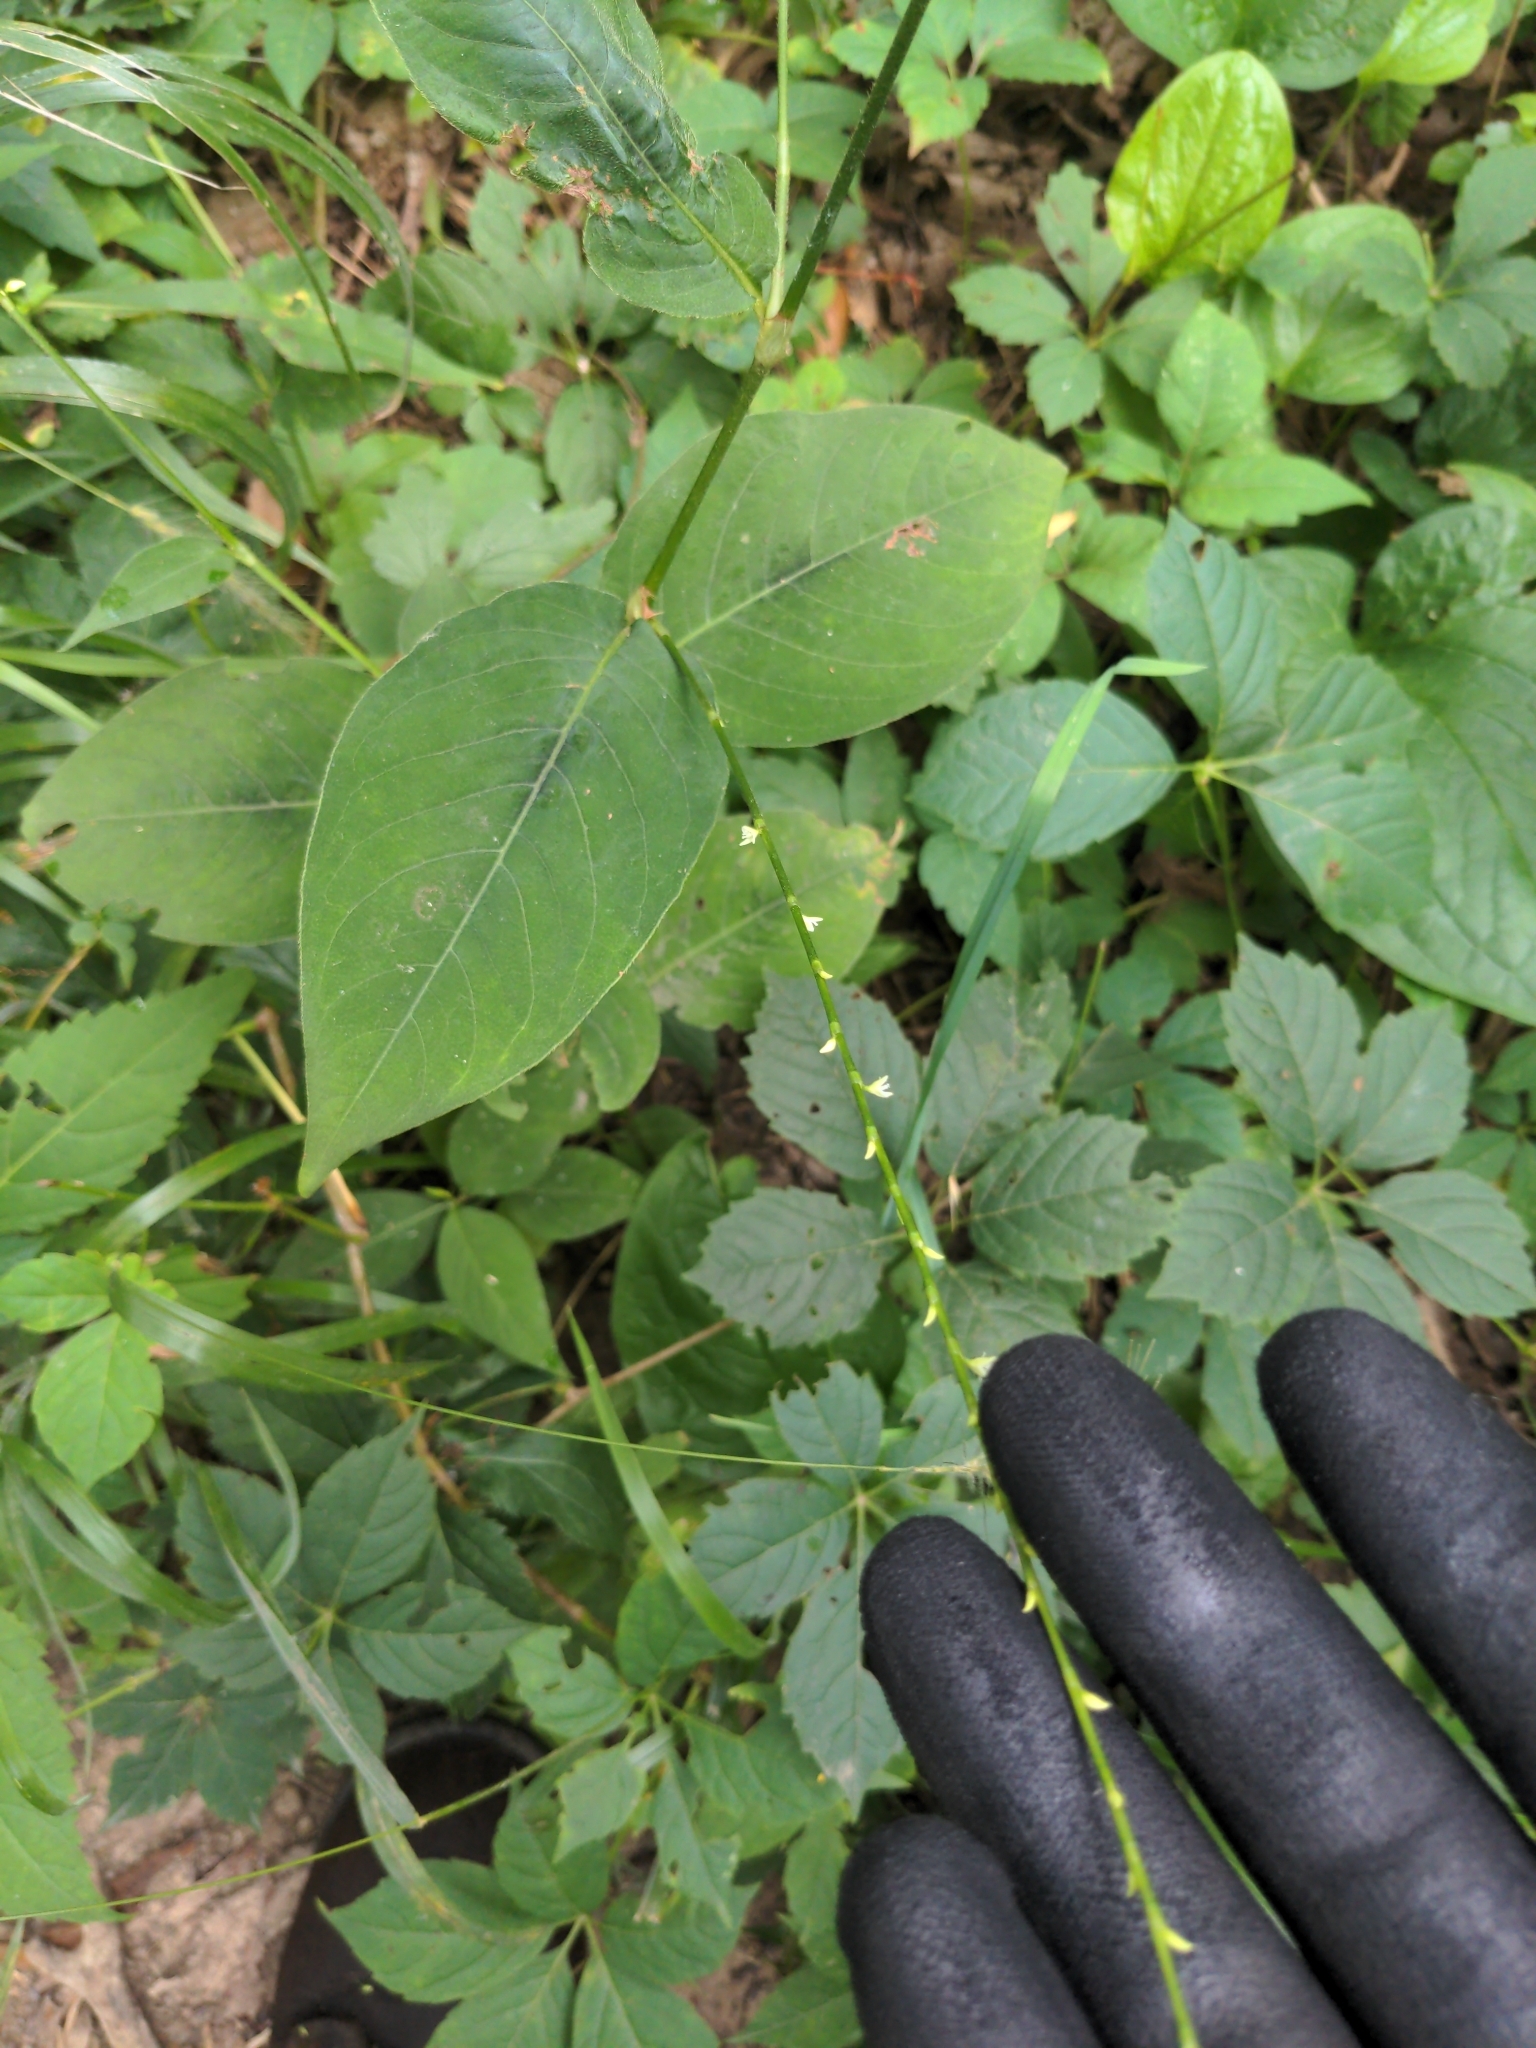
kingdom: Plantae
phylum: Tracheophyta
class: Magnoliopsida
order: Caryophyllales
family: Polygonaceae
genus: Persicaria
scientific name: Persicaria virginiana
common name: Jumpseed
